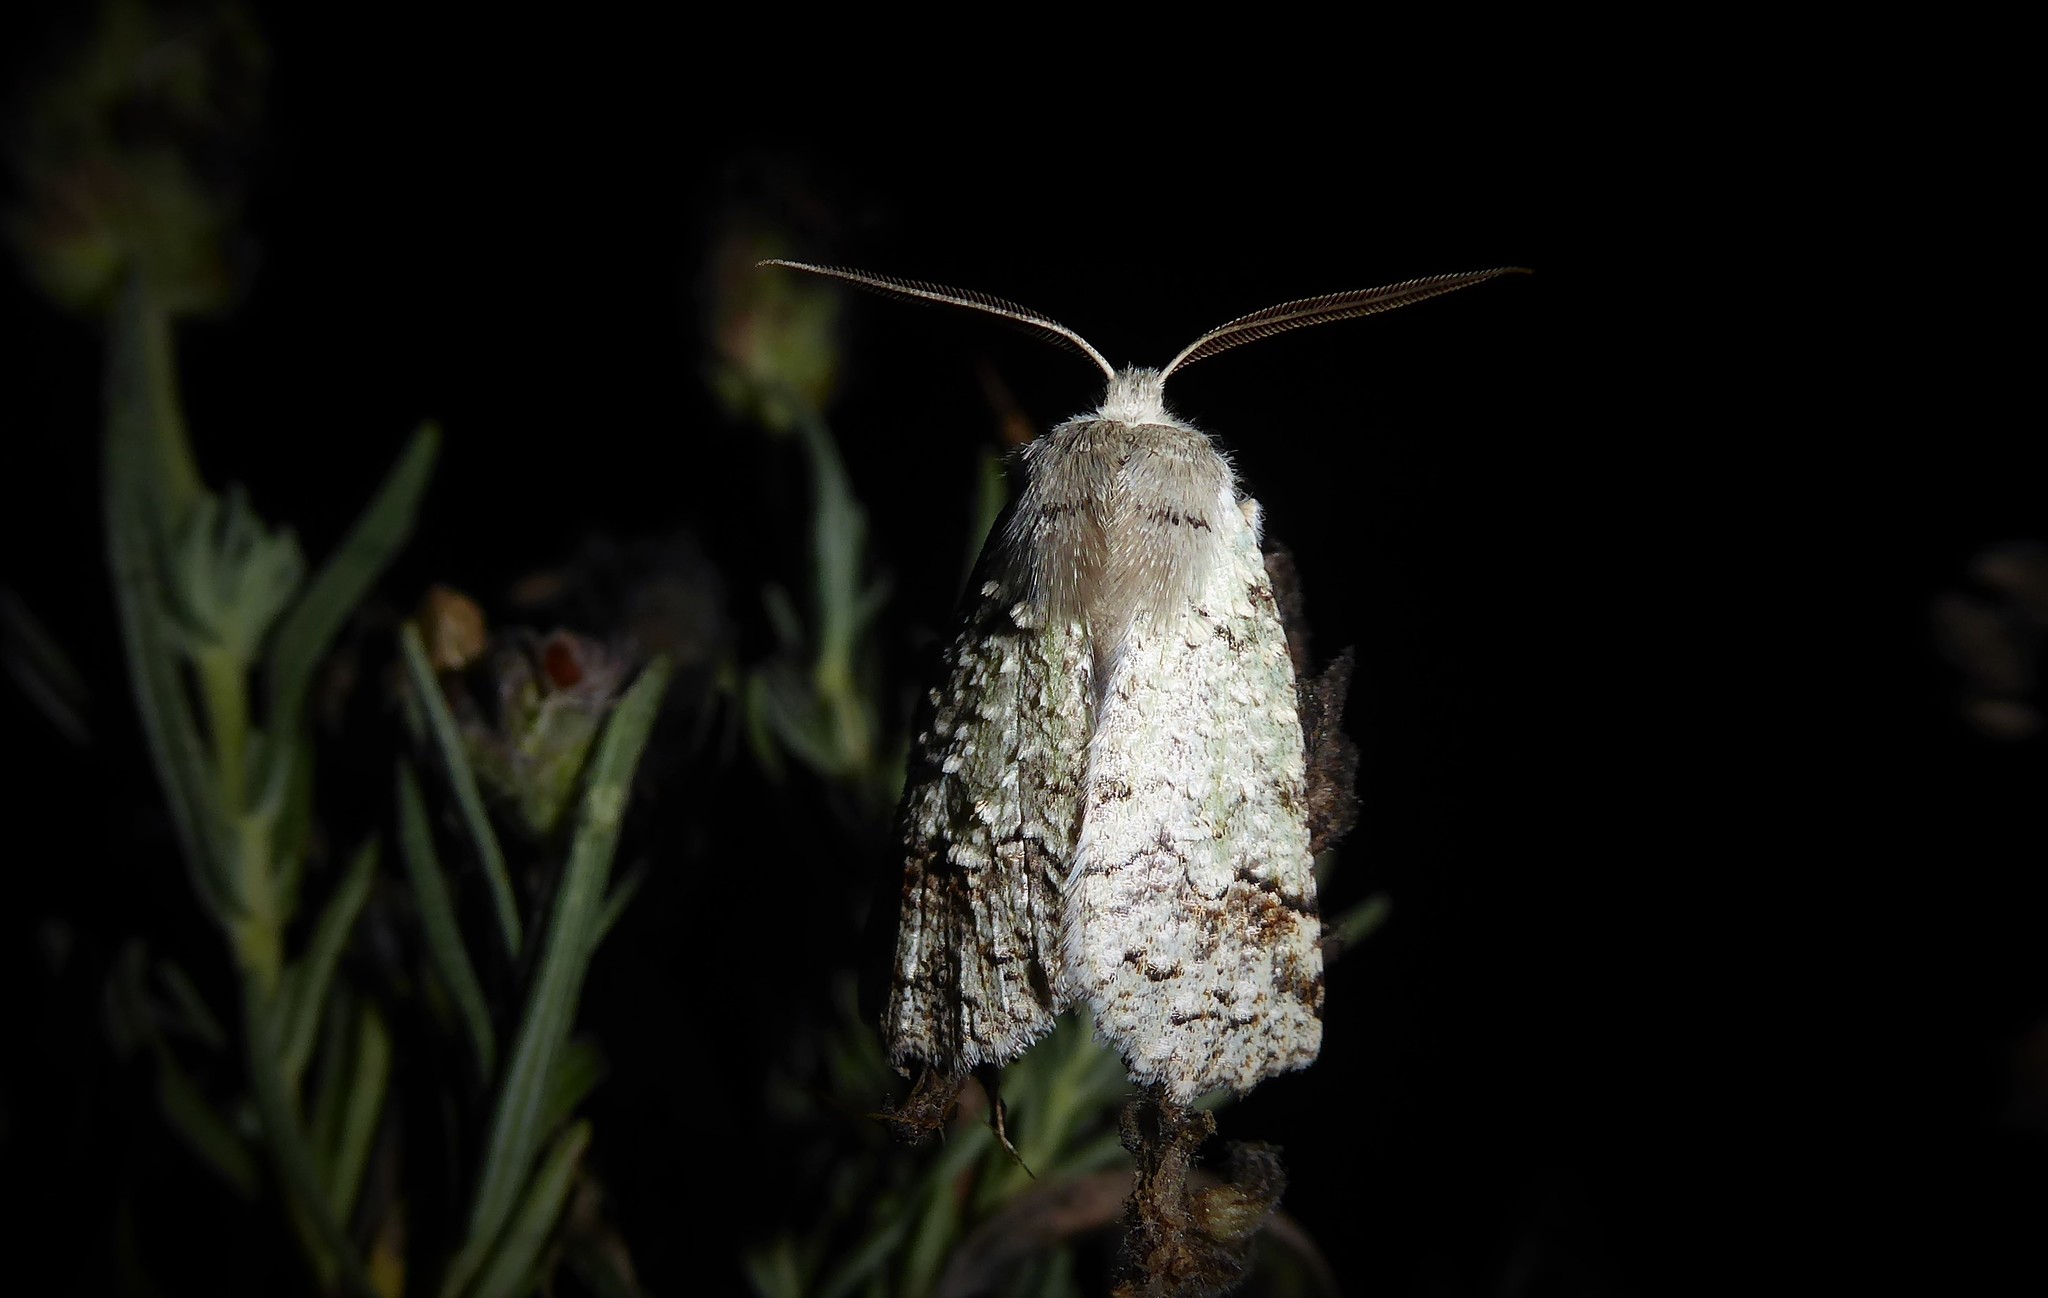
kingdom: Animalia
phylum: Arthropoda
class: Insecta
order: Lepidoptera
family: Geometridae
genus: Declana
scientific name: Declana floccosa
